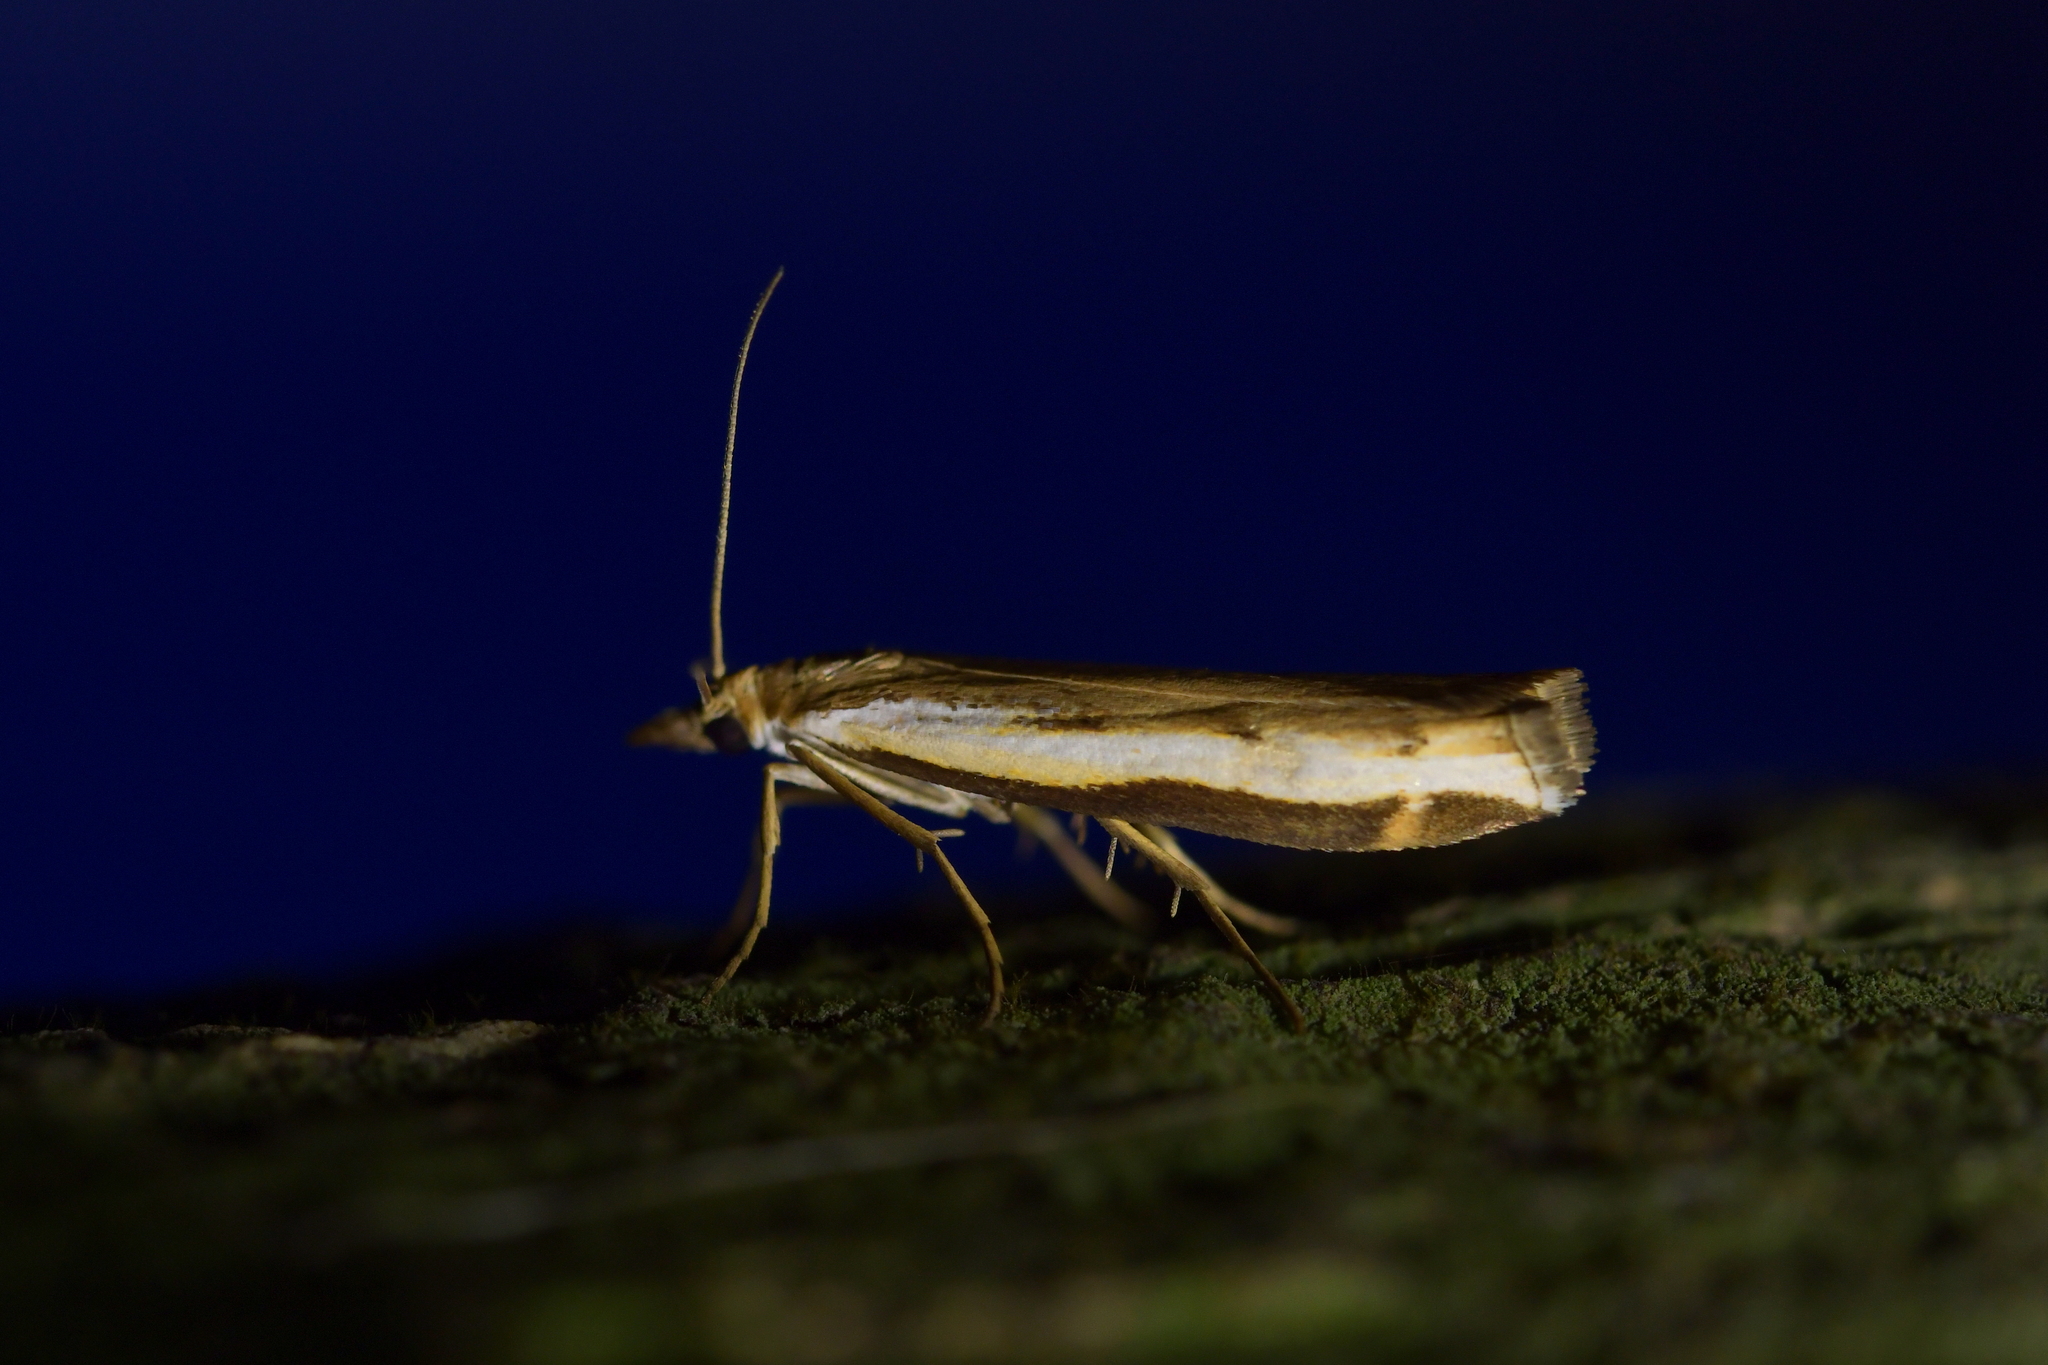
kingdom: Animalia
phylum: Arthropoda
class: Insecta
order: Lepidoptera
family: Crambidae
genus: Orocrambus
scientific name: Orocrambus flexuosellus
